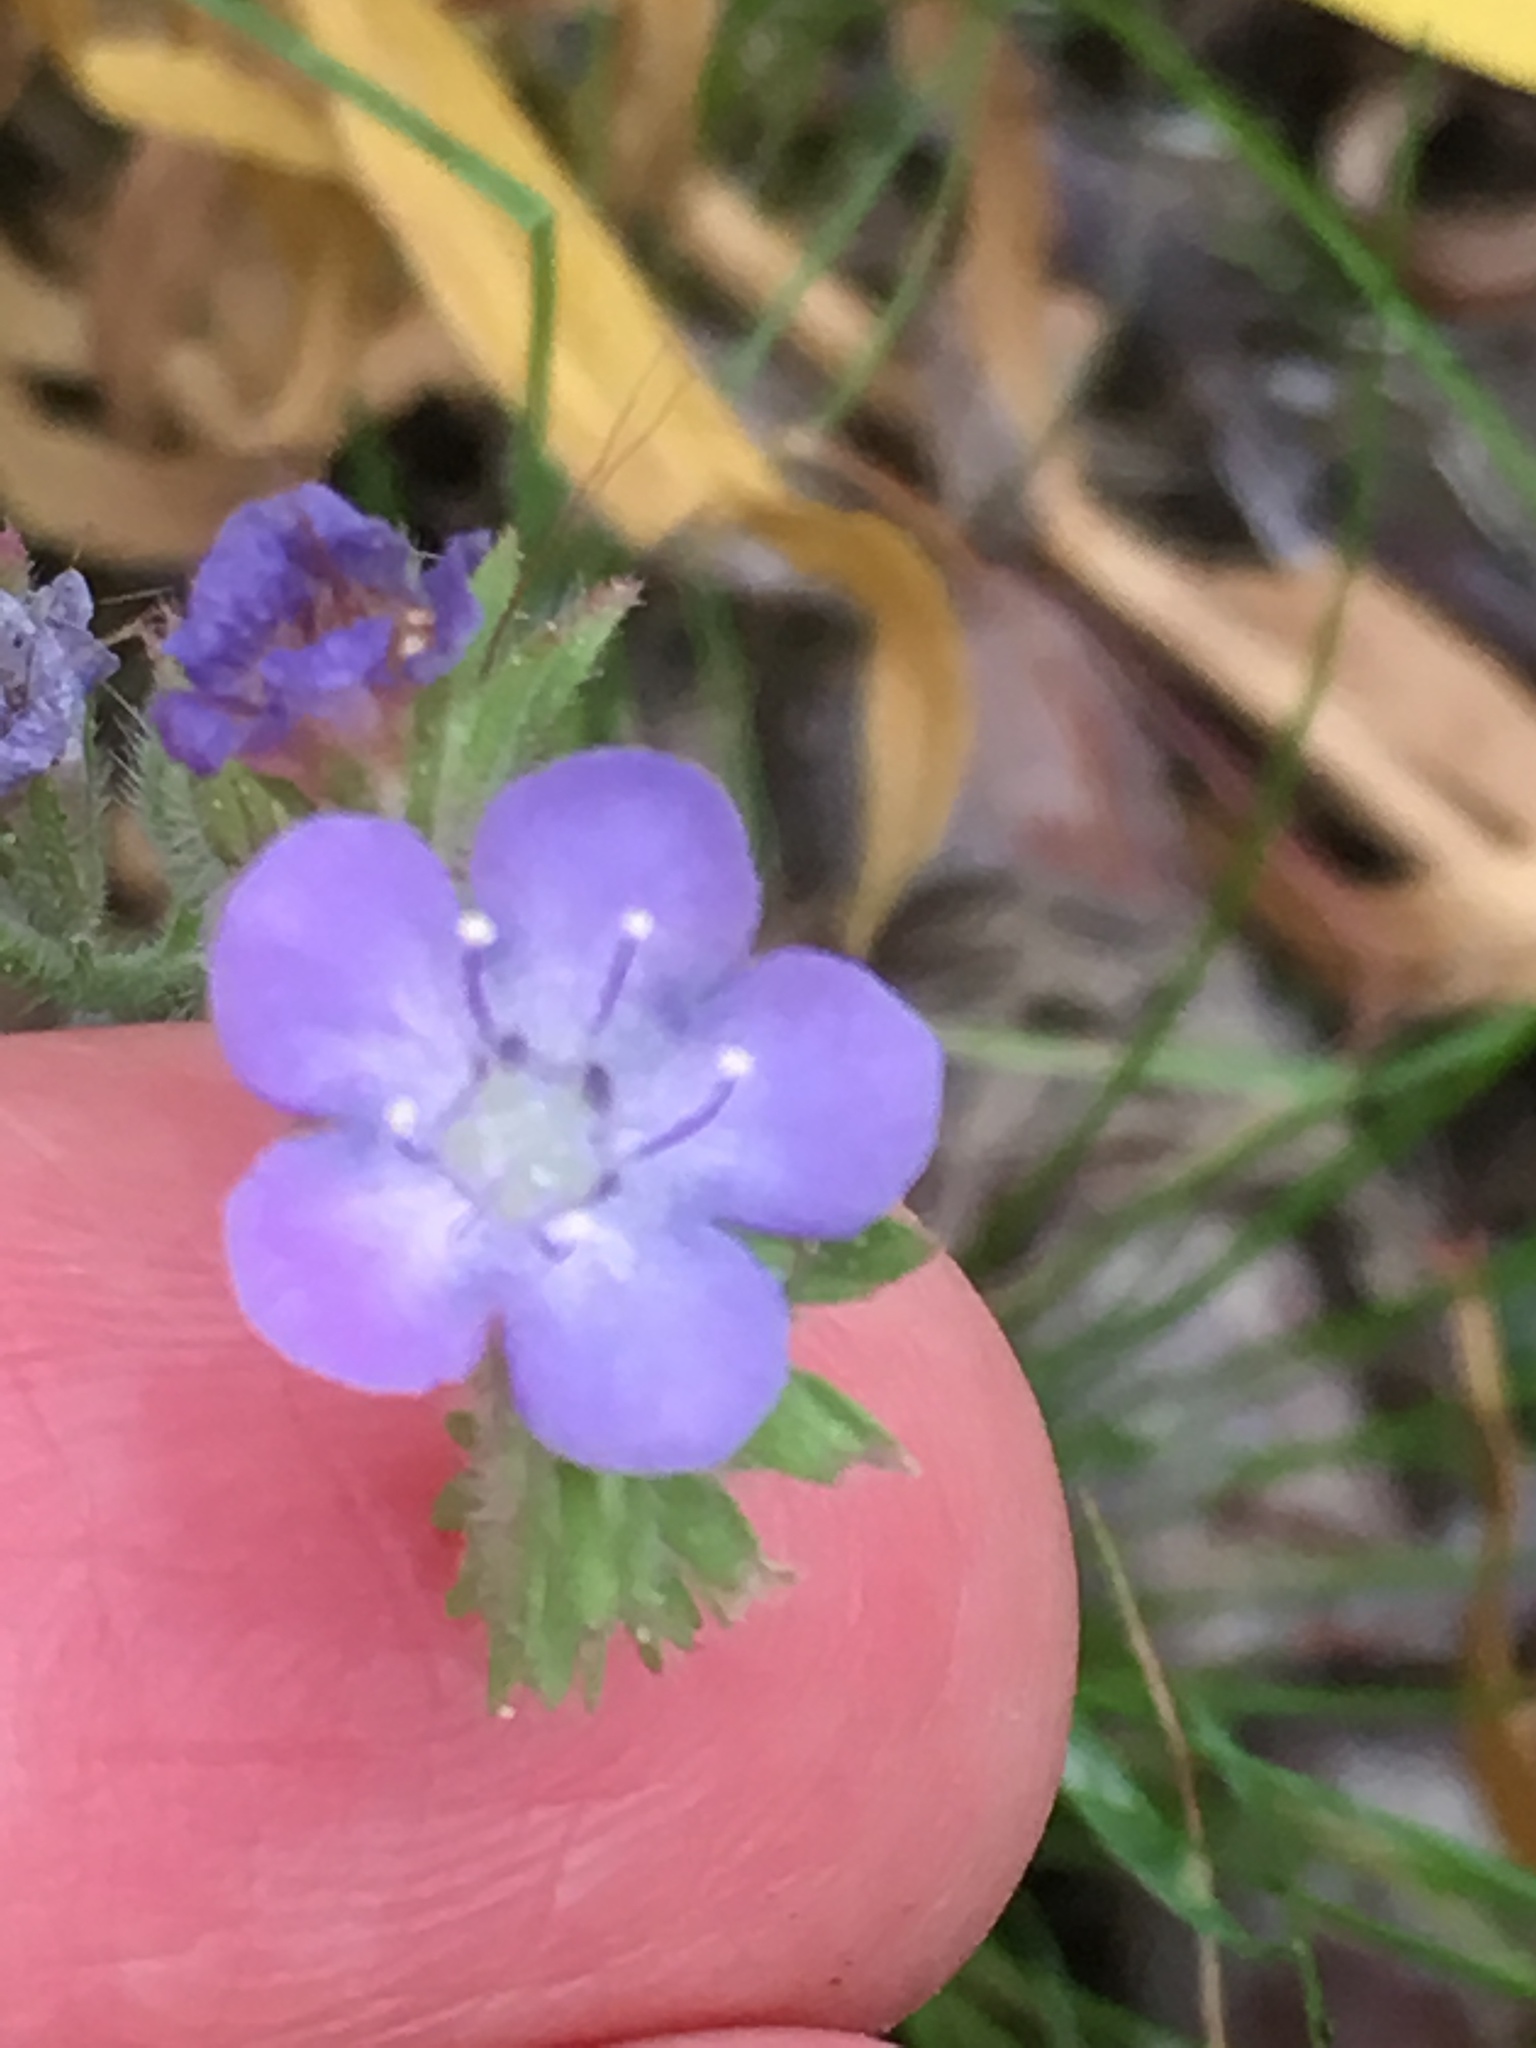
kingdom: Plantae
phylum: Tracheophyta
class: Magnoliopsida
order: Boraginales
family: Hydrophyllaceae
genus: Phacelia
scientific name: Phacelia distans
